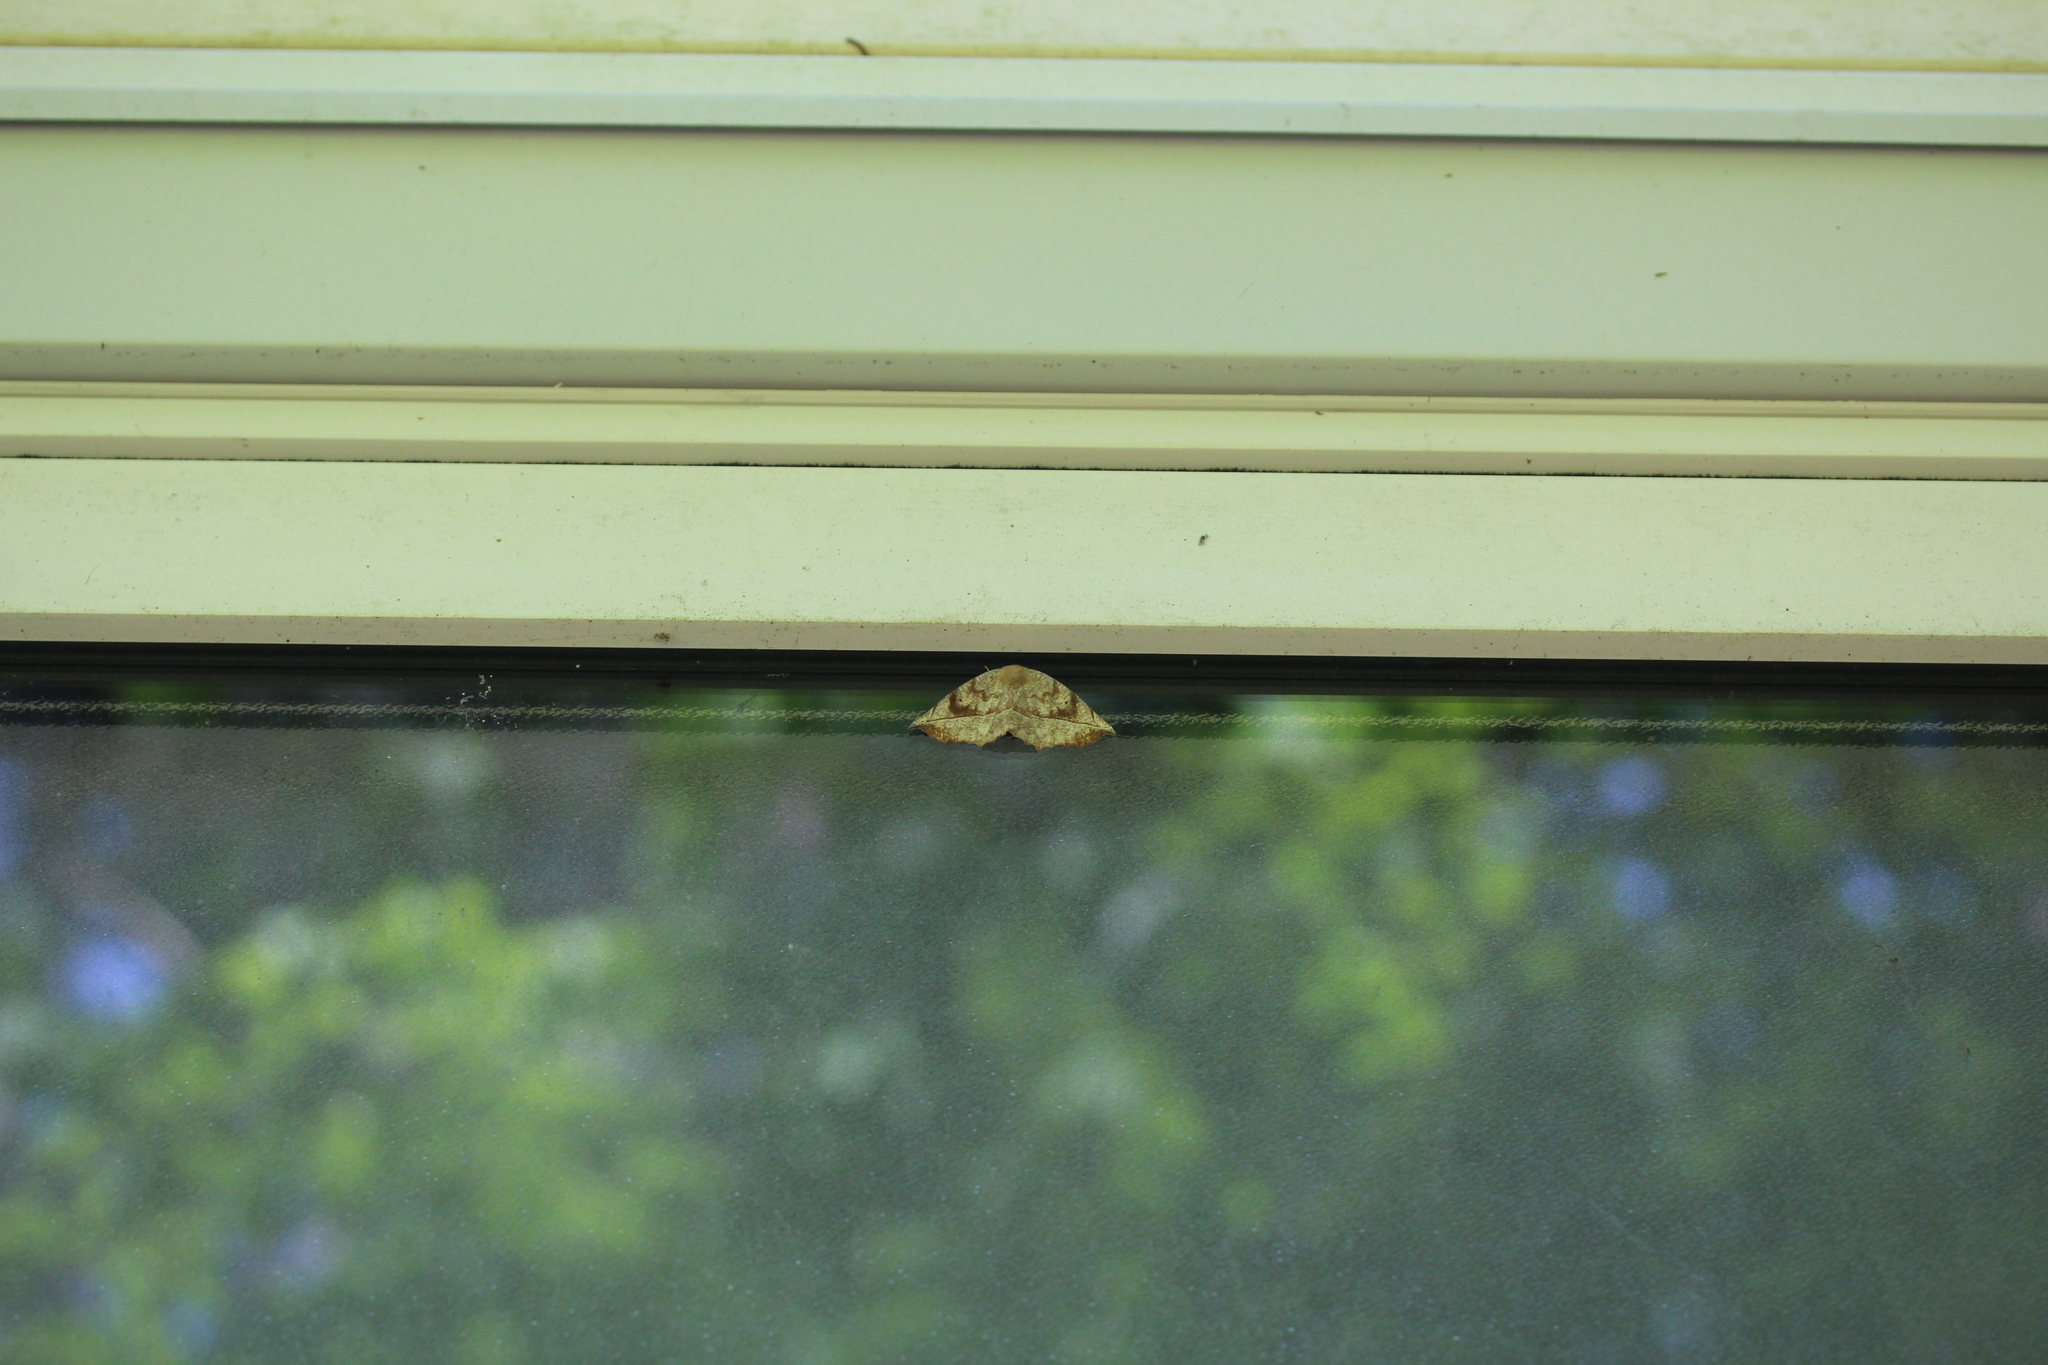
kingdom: Animalia
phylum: Arthropoda
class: Insecta
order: Lepidoptera
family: Geometridae
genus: Eutrapela
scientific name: Eutrapela clemataria
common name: Curved-toothed geometer
